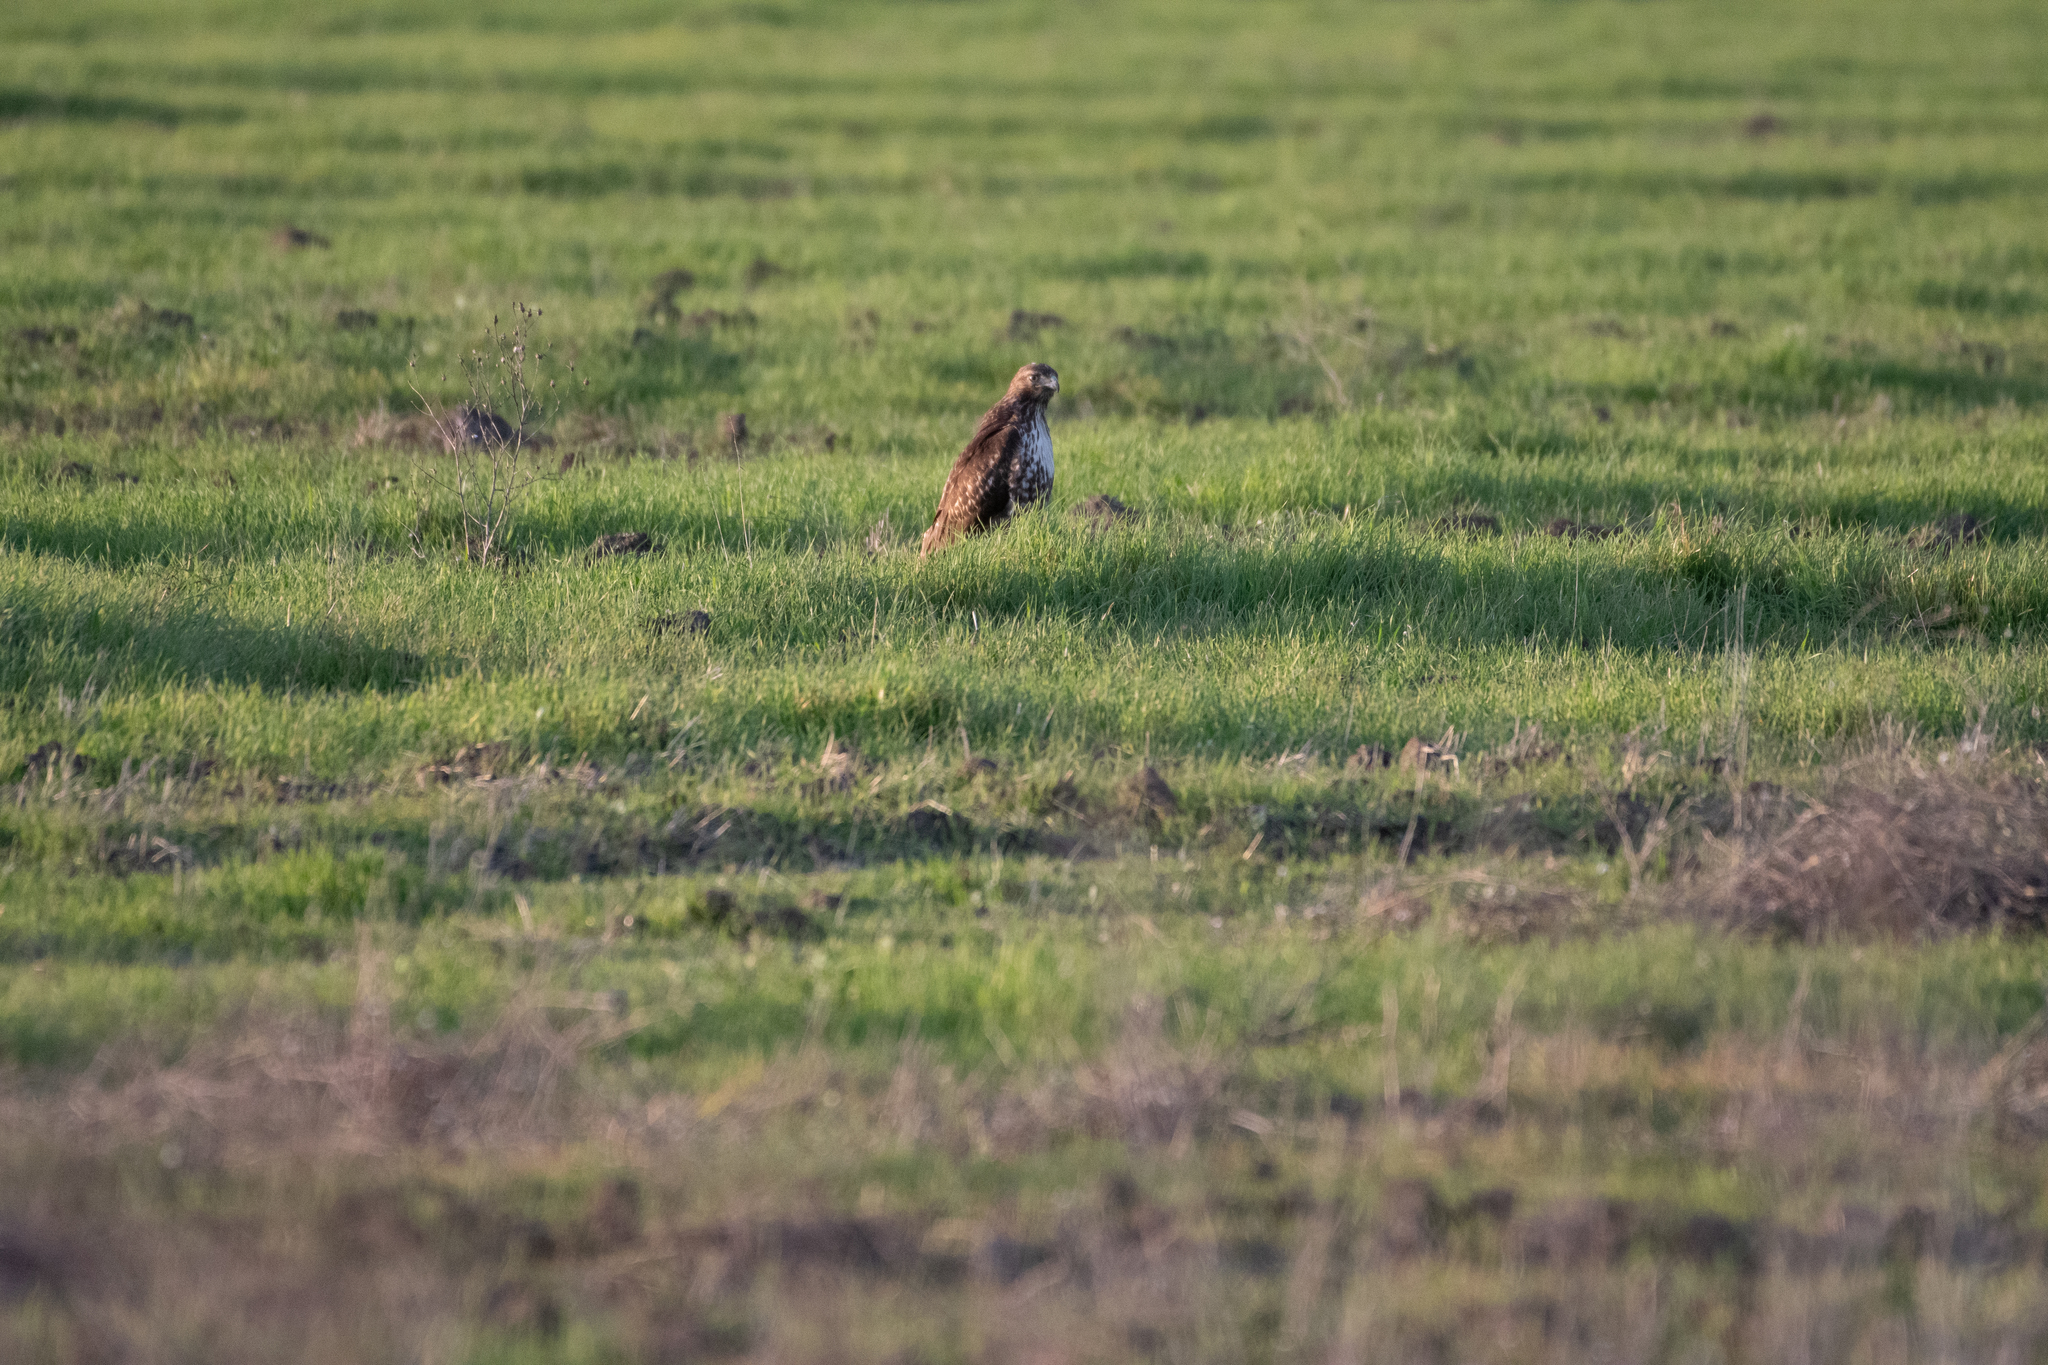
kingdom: Animalia
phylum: Chordata
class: Aves
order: Accipitriformes
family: Accipitridae
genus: Buteo
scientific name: Buteo jamaicensis
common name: Red-tailed hawk
